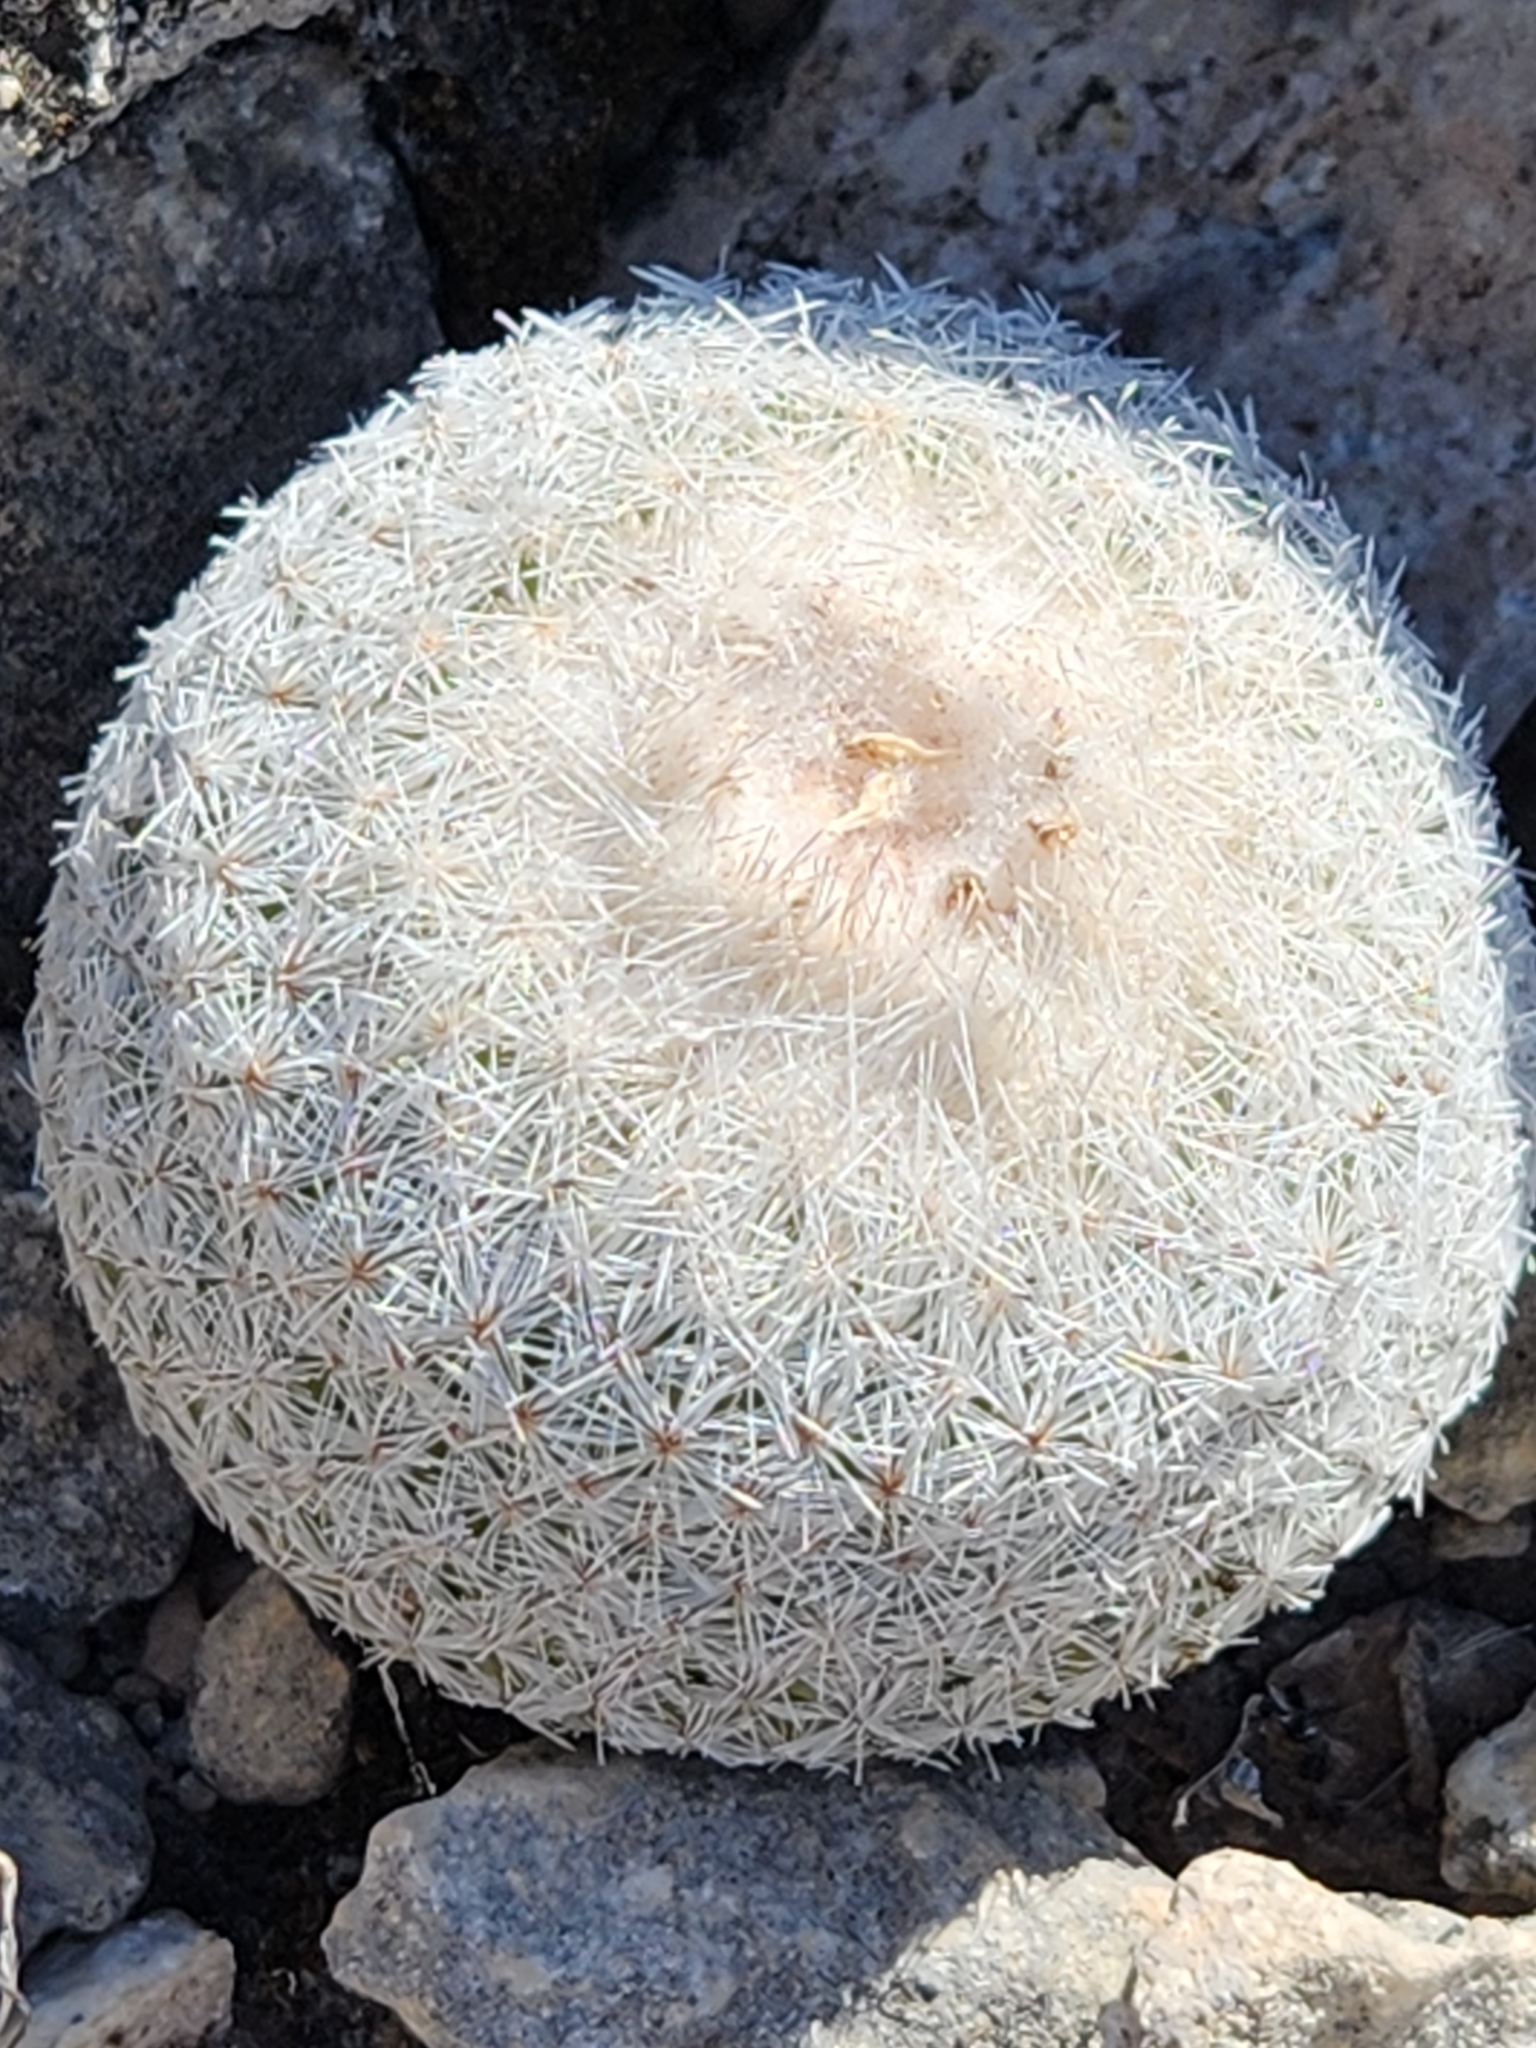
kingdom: Plantae
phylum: Tracheophyta
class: Magnoliopsida
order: Caryophyllales
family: Cactaceae
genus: Epithelantha
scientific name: Epithelantha micromeris
